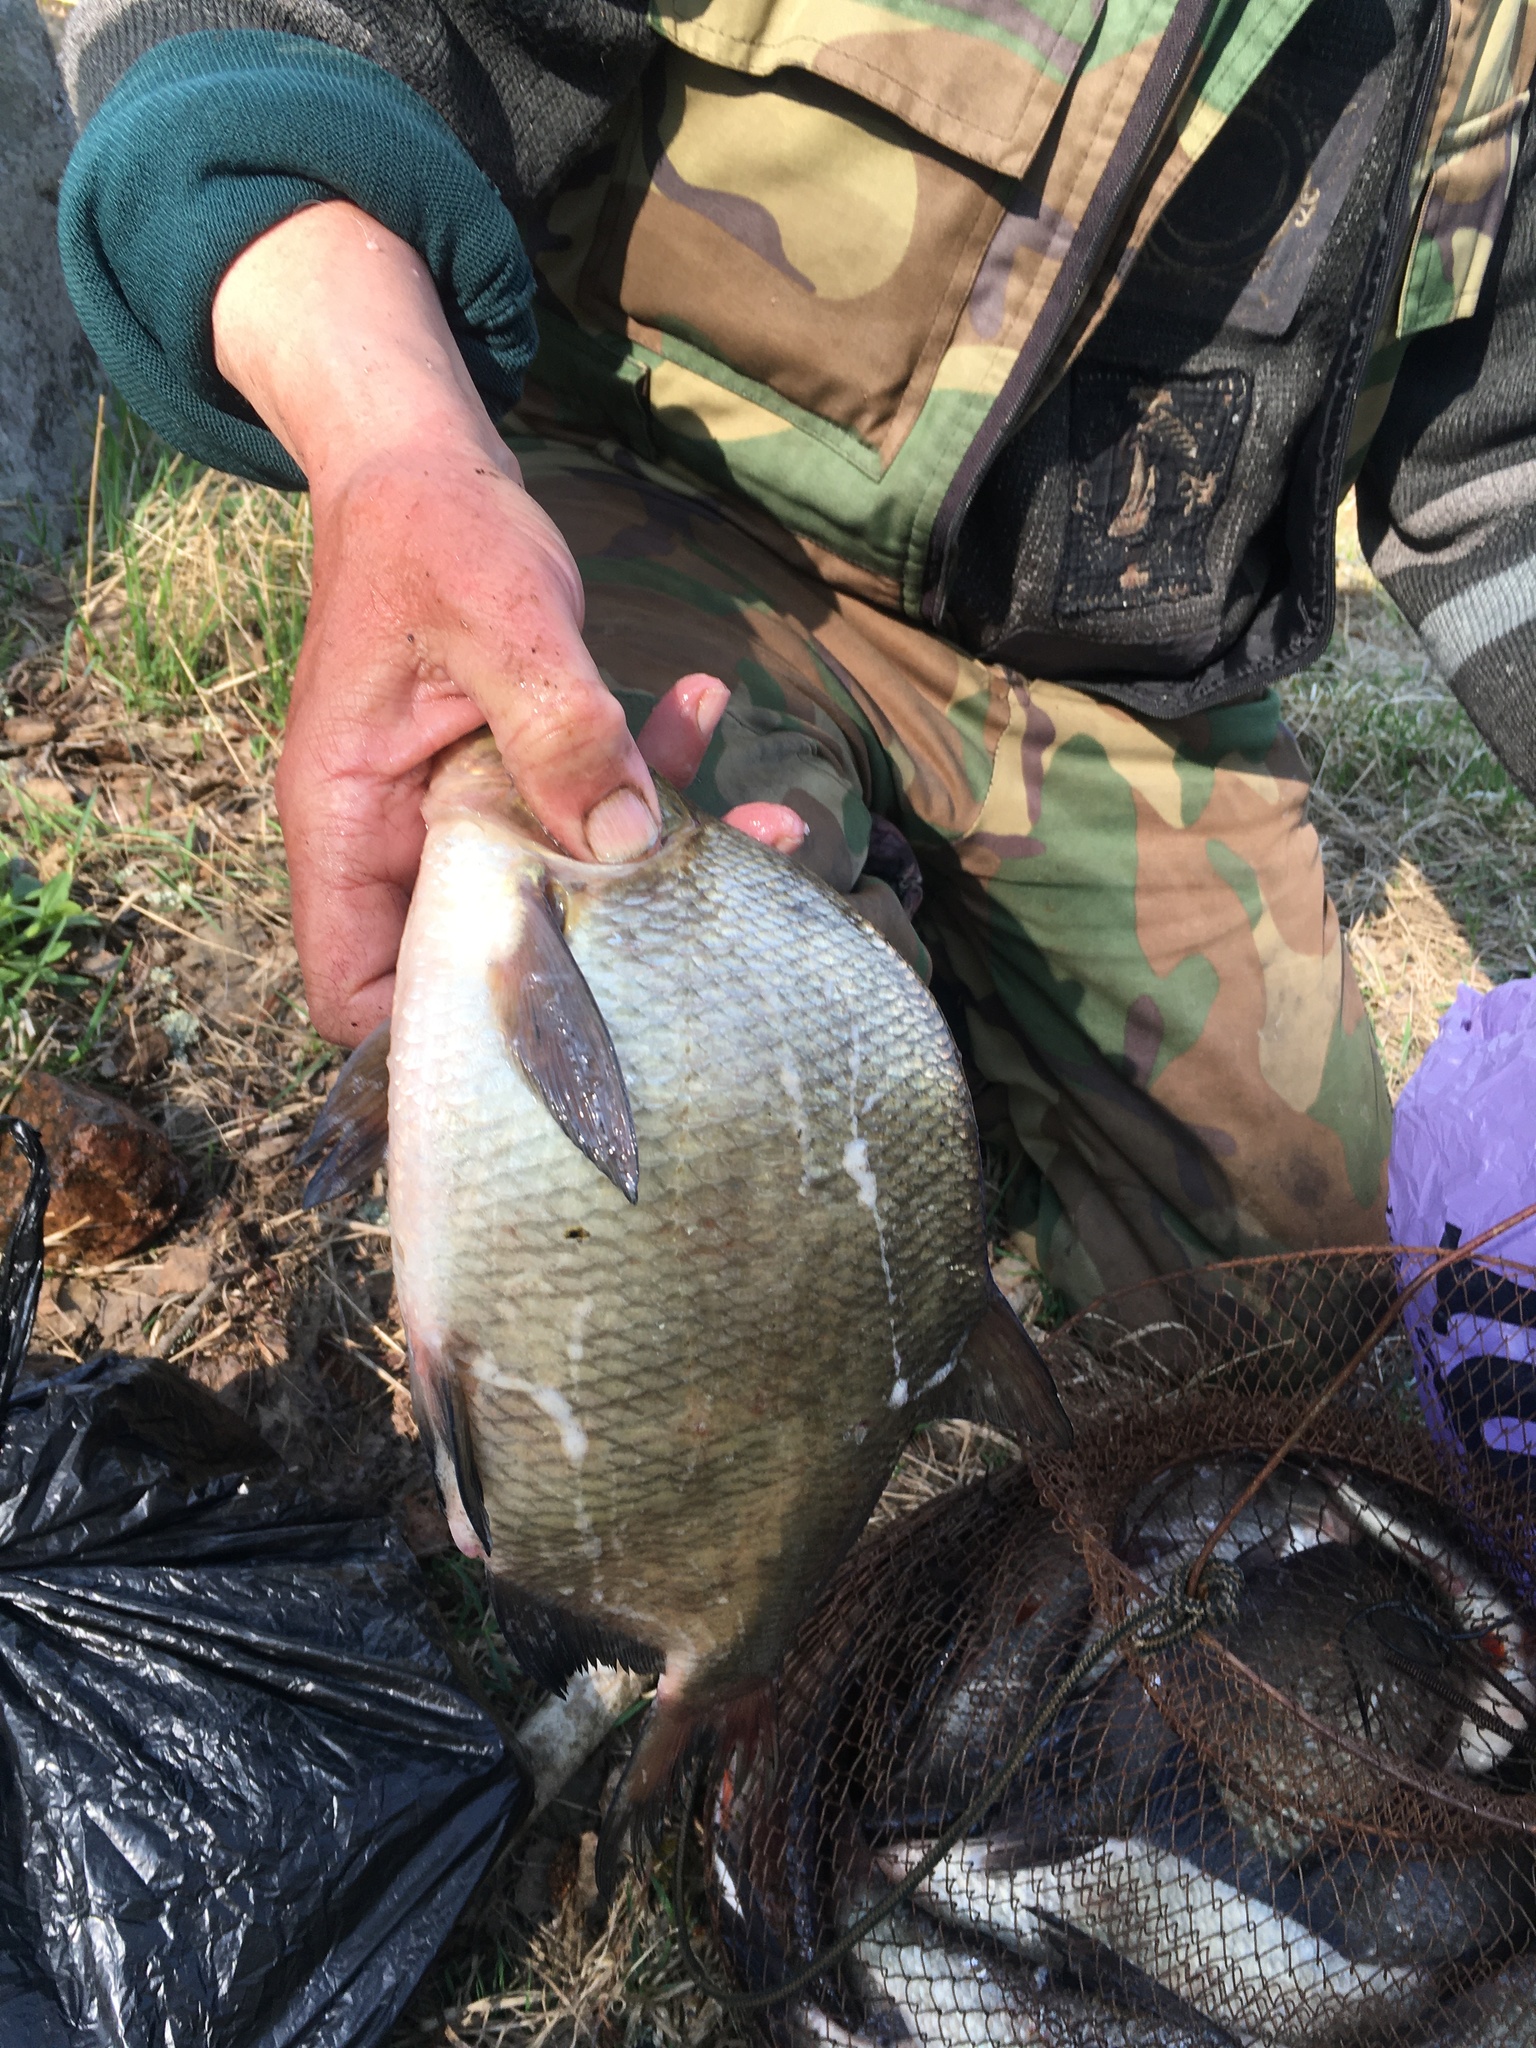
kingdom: Animalia
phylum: Chordata
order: Cypriniformes
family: Cyprinidae
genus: Abramis
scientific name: Abramis brama
